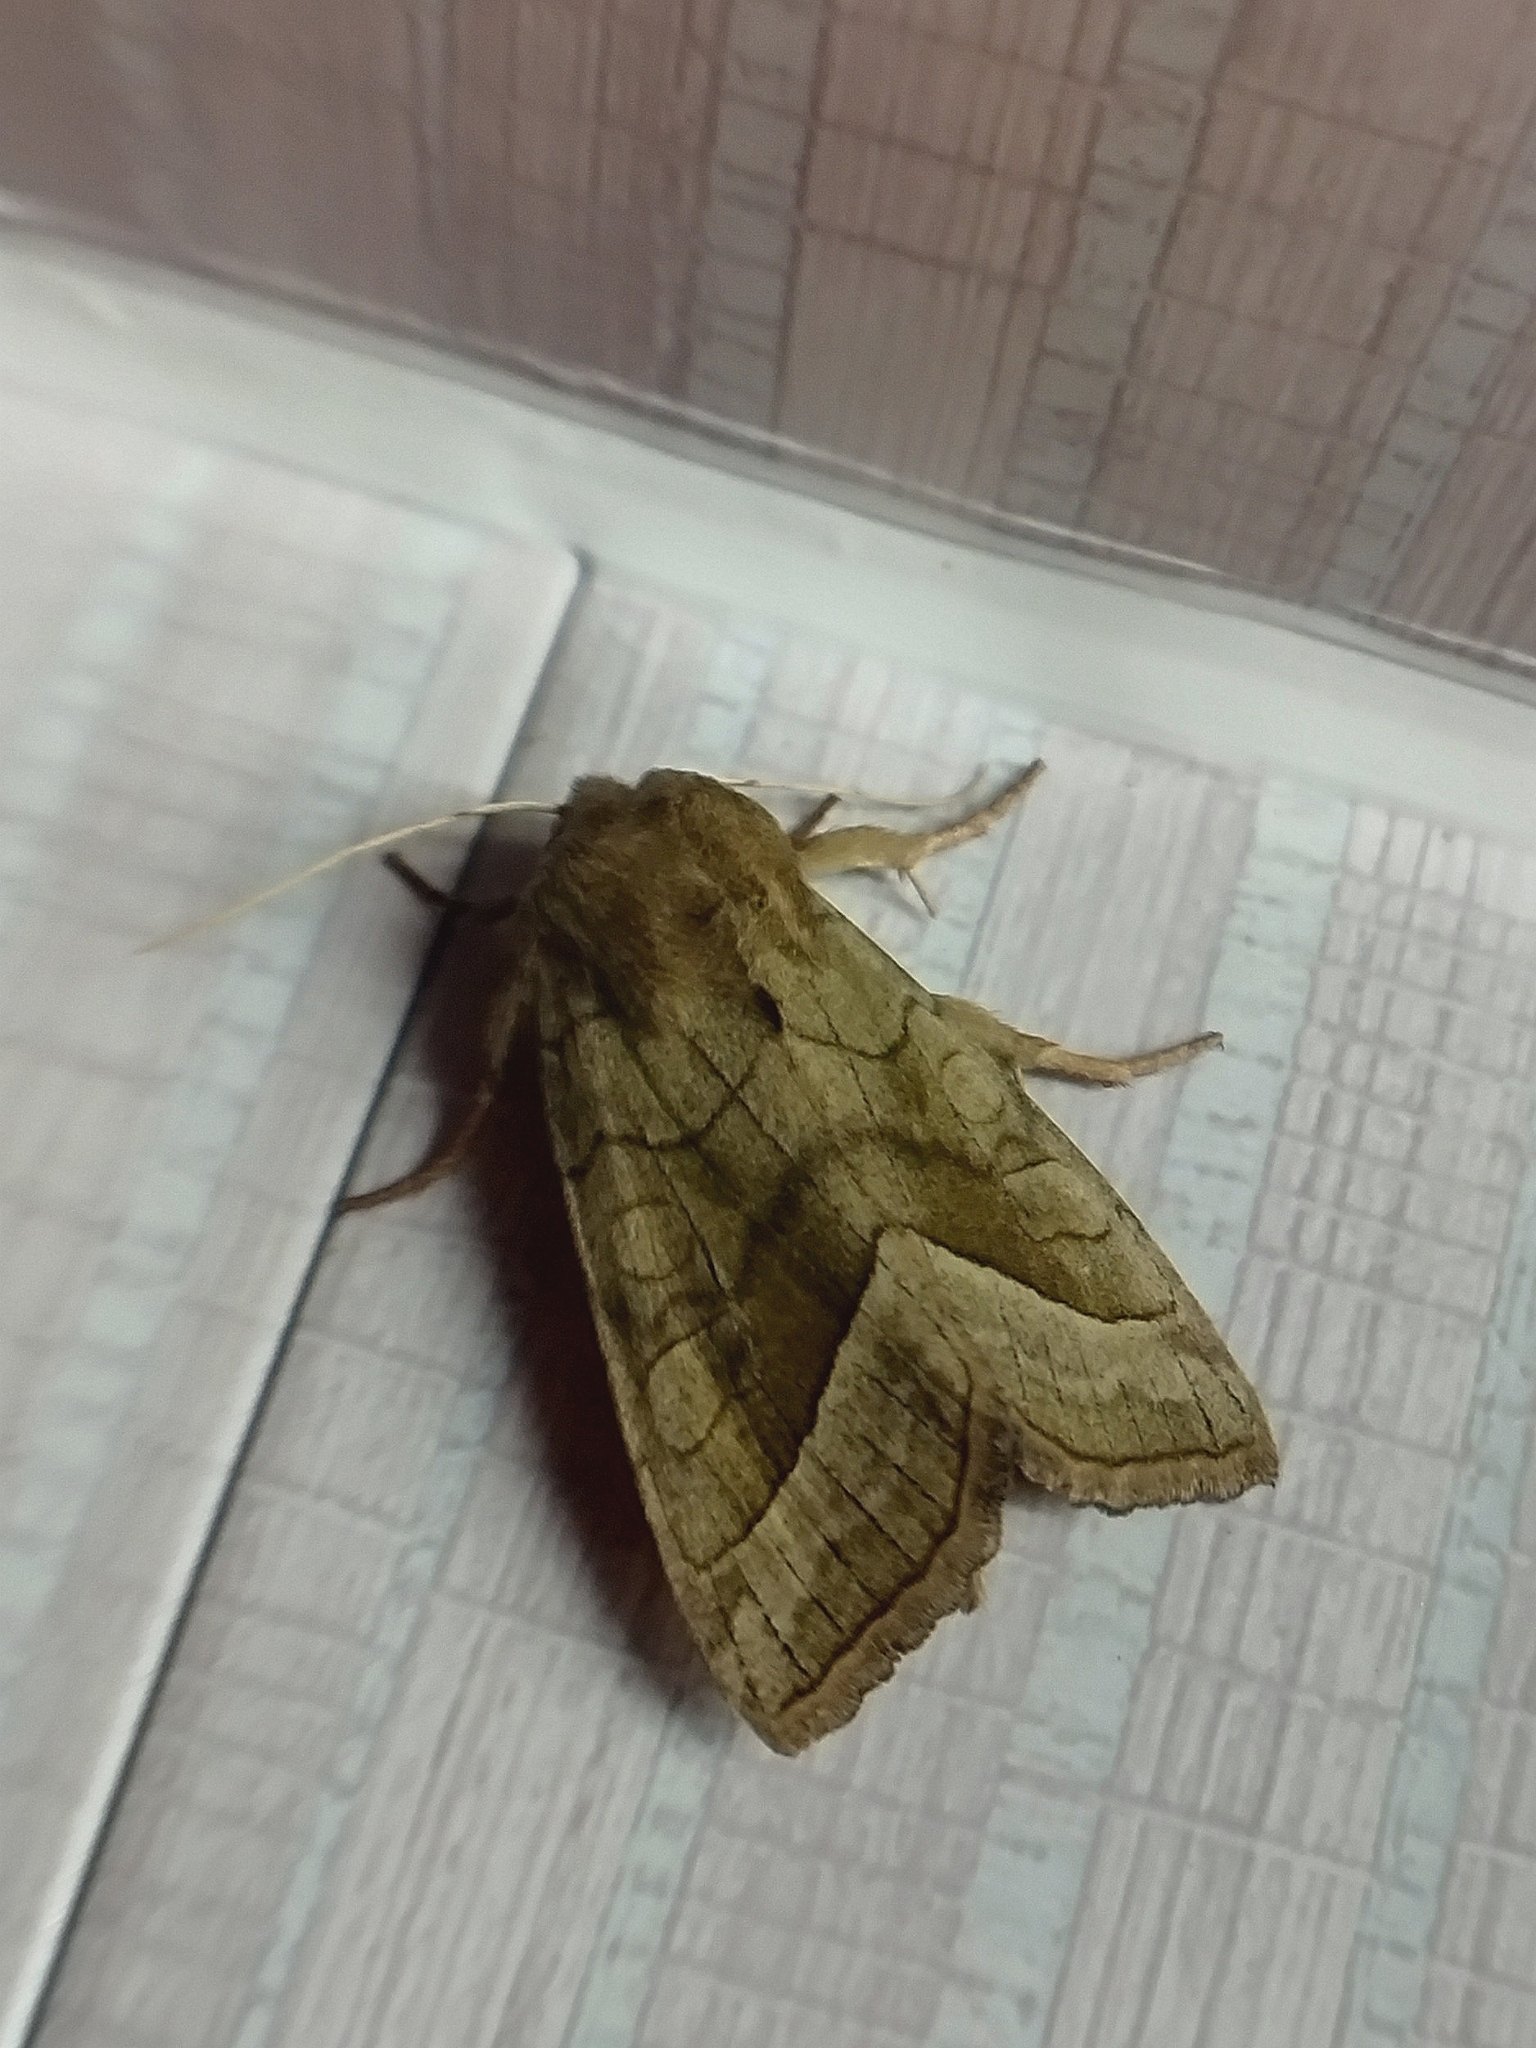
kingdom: Animalia
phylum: Arthropoda
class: Insecta
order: Lepidoptera
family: Noctuidae
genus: Hydraecia
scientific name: Hydraecia micacea
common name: Rosy rustic
